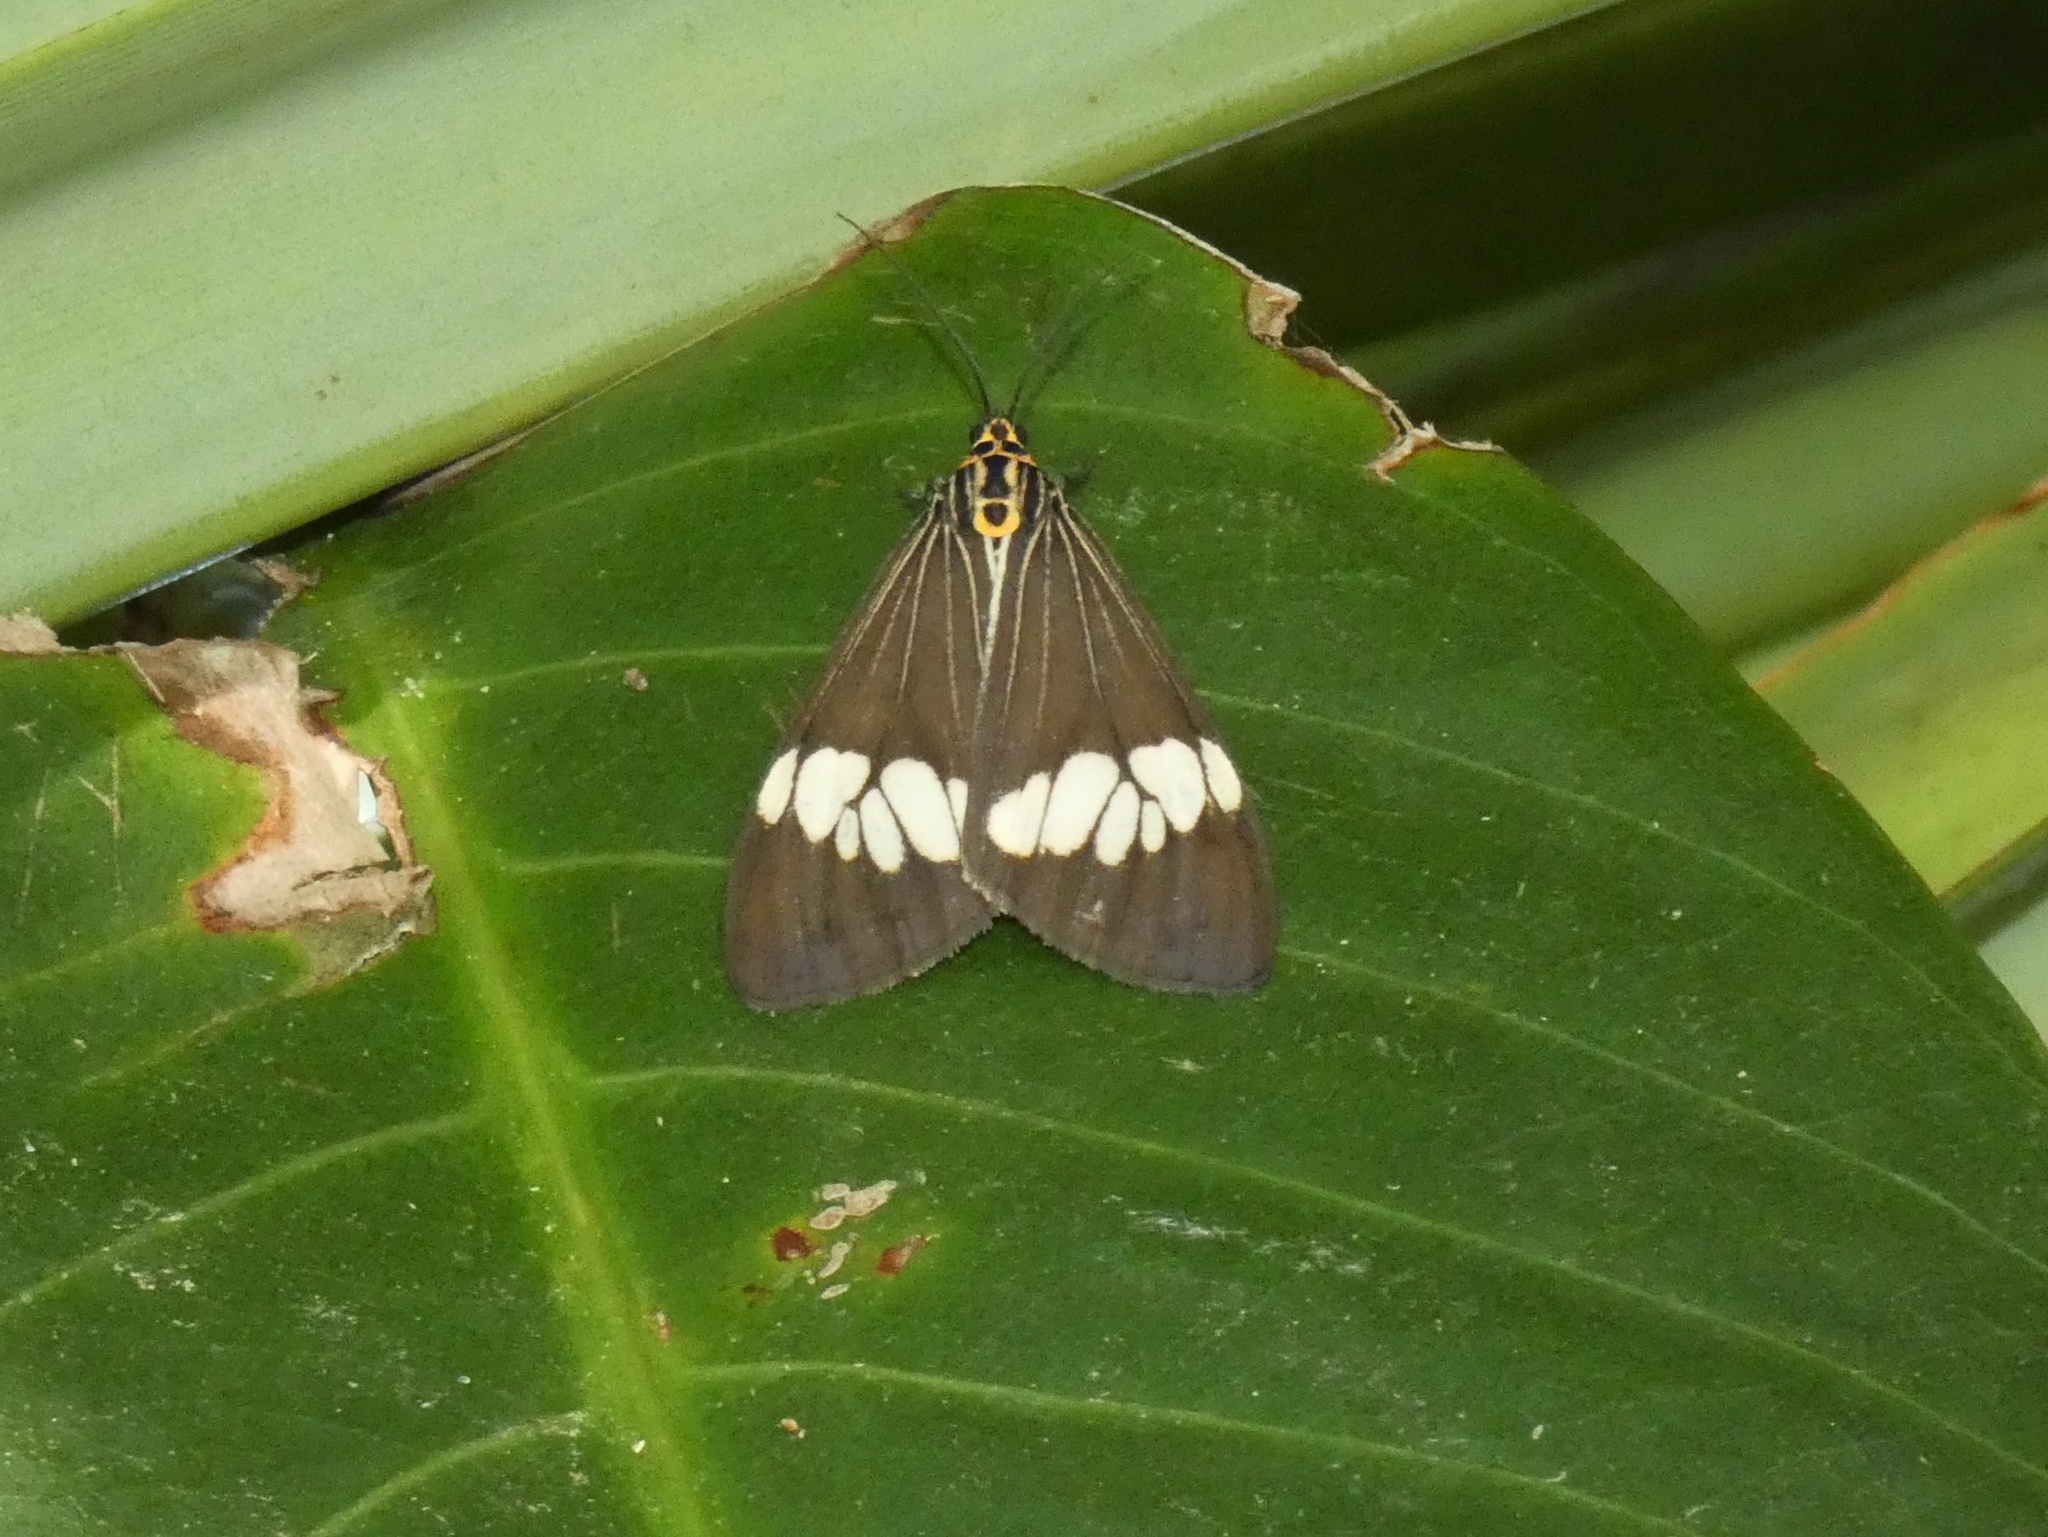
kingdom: Animalia
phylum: Arthropoda
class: Insecta
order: Lepidoptera
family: Erebidae
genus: Nyctemera
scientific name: Nyctemera baulus
